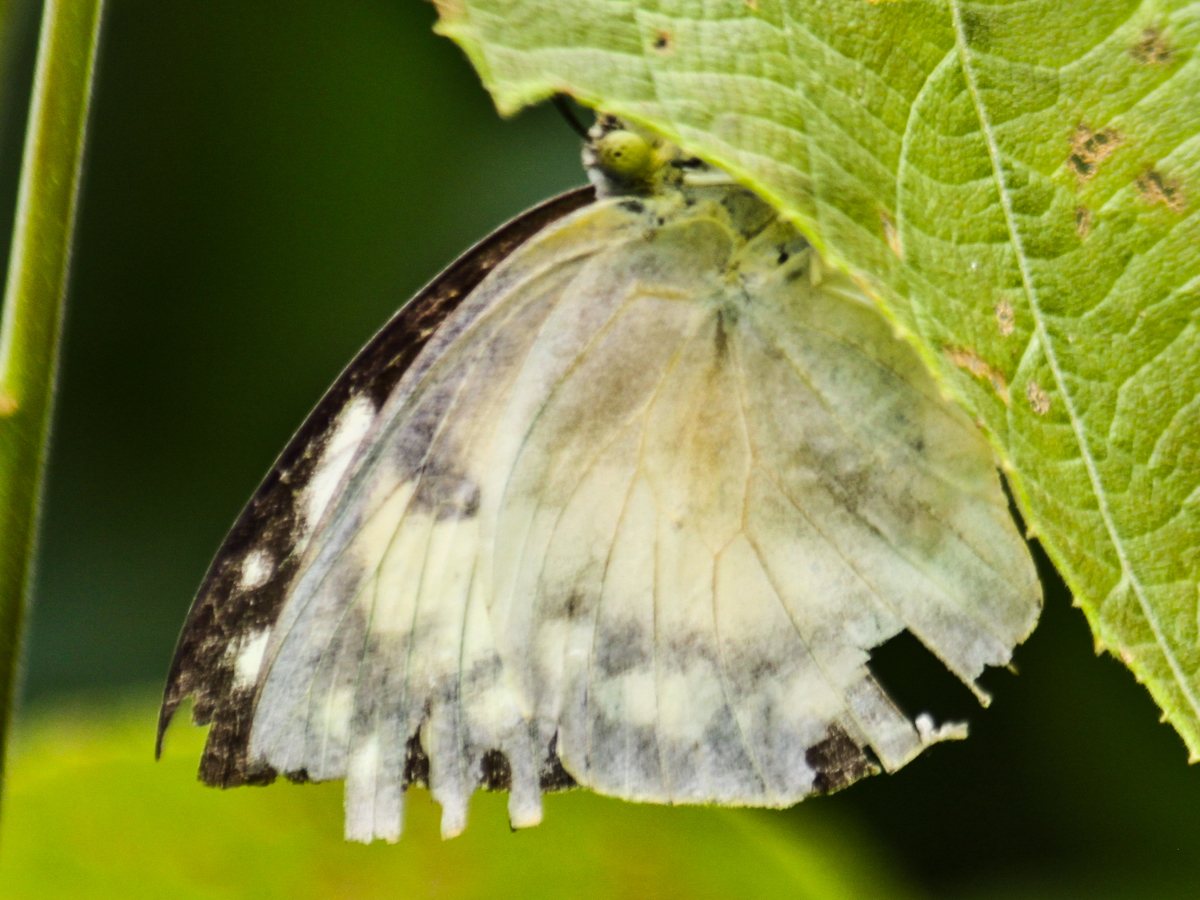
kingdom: Animalia
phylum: Arthropoda
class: Insecta
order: Lepidoptera
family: Pieridae
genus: Catopsilia
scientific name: Catopsilia pomona
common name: Common emigrant
